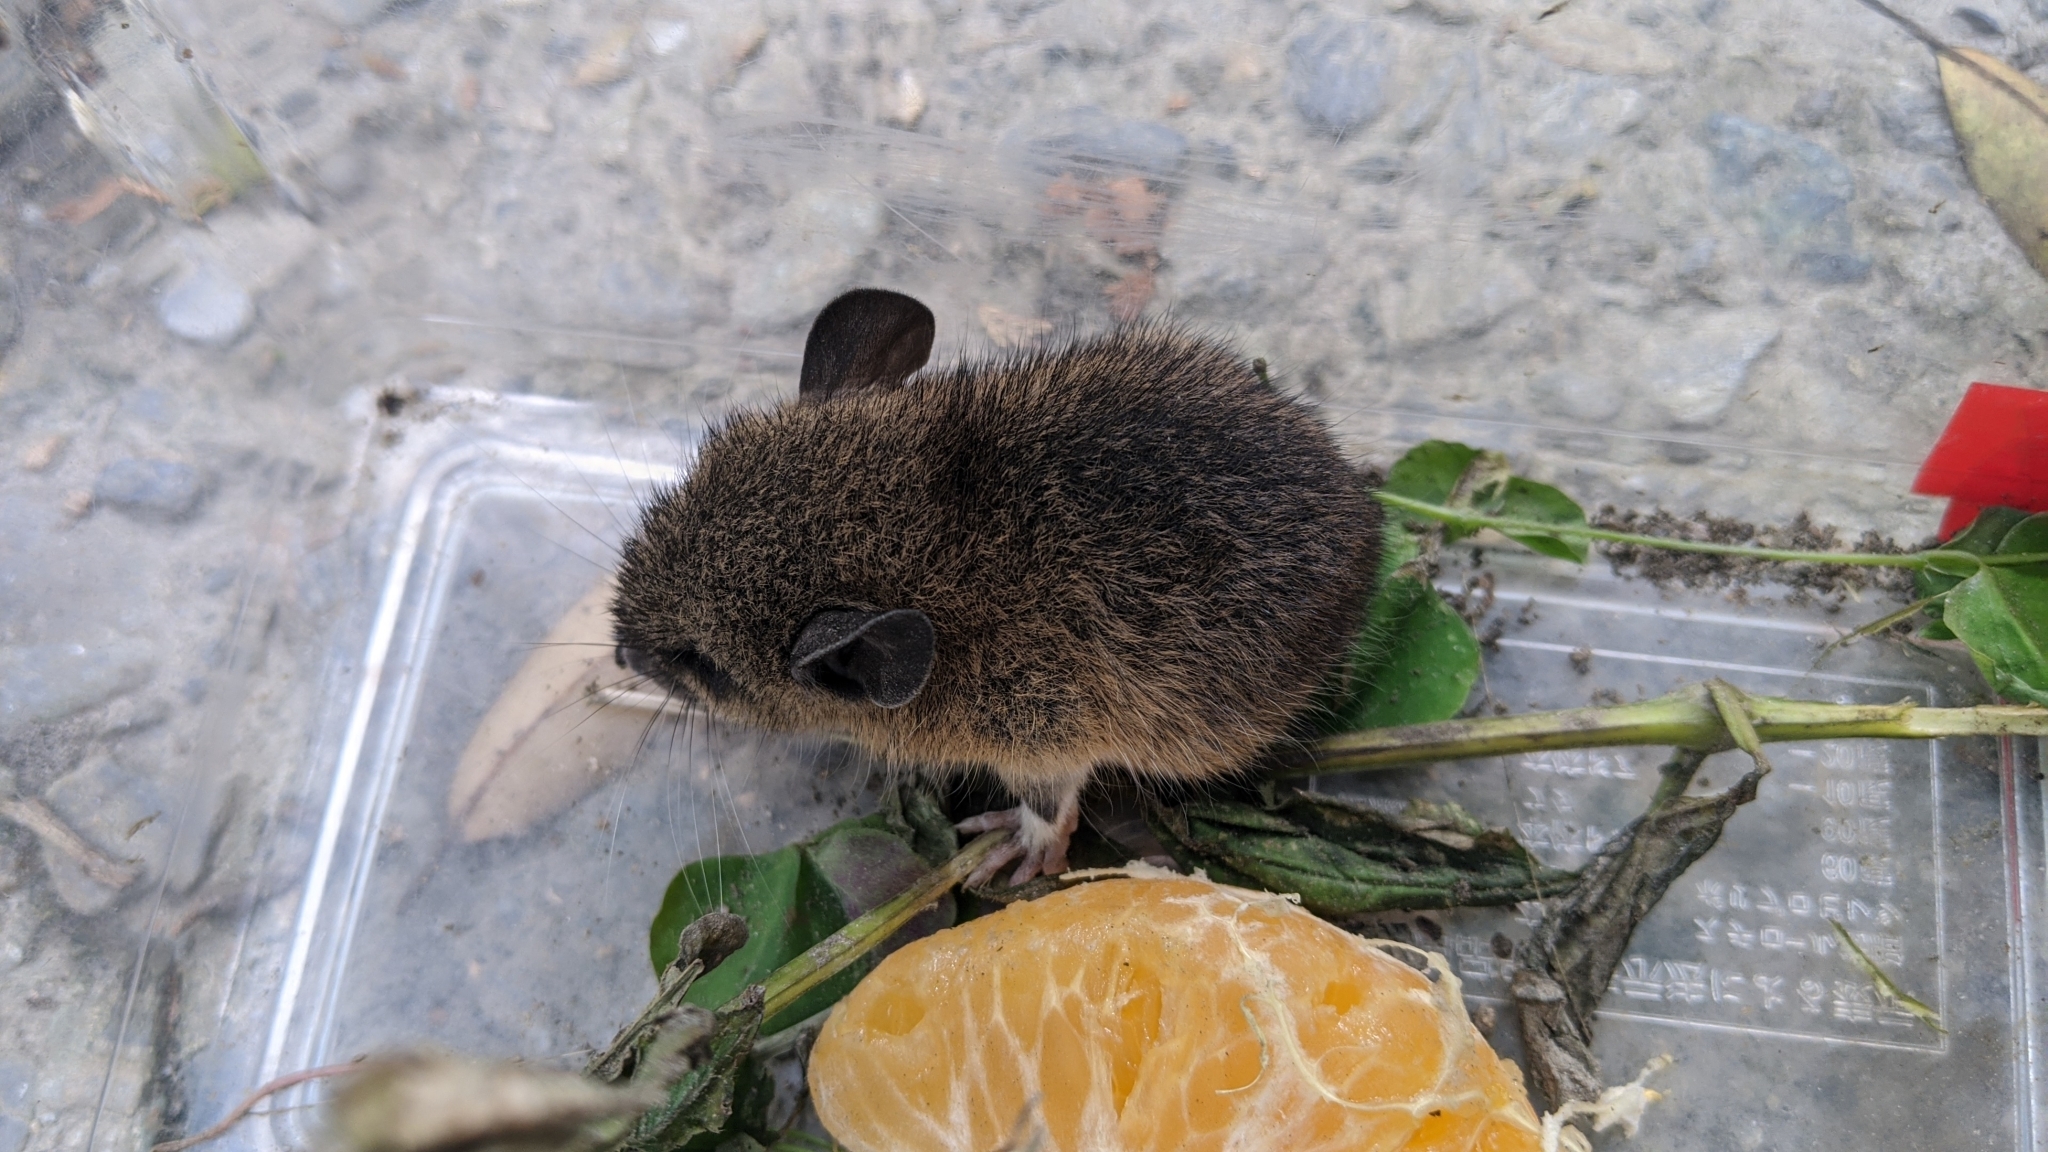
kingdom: Animalia
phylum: Chordata
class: Mammalia
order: Rodentia
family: Muridae
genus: Niviventer
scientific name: Niviventer coninga
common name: Spiny taiwan niviventer
